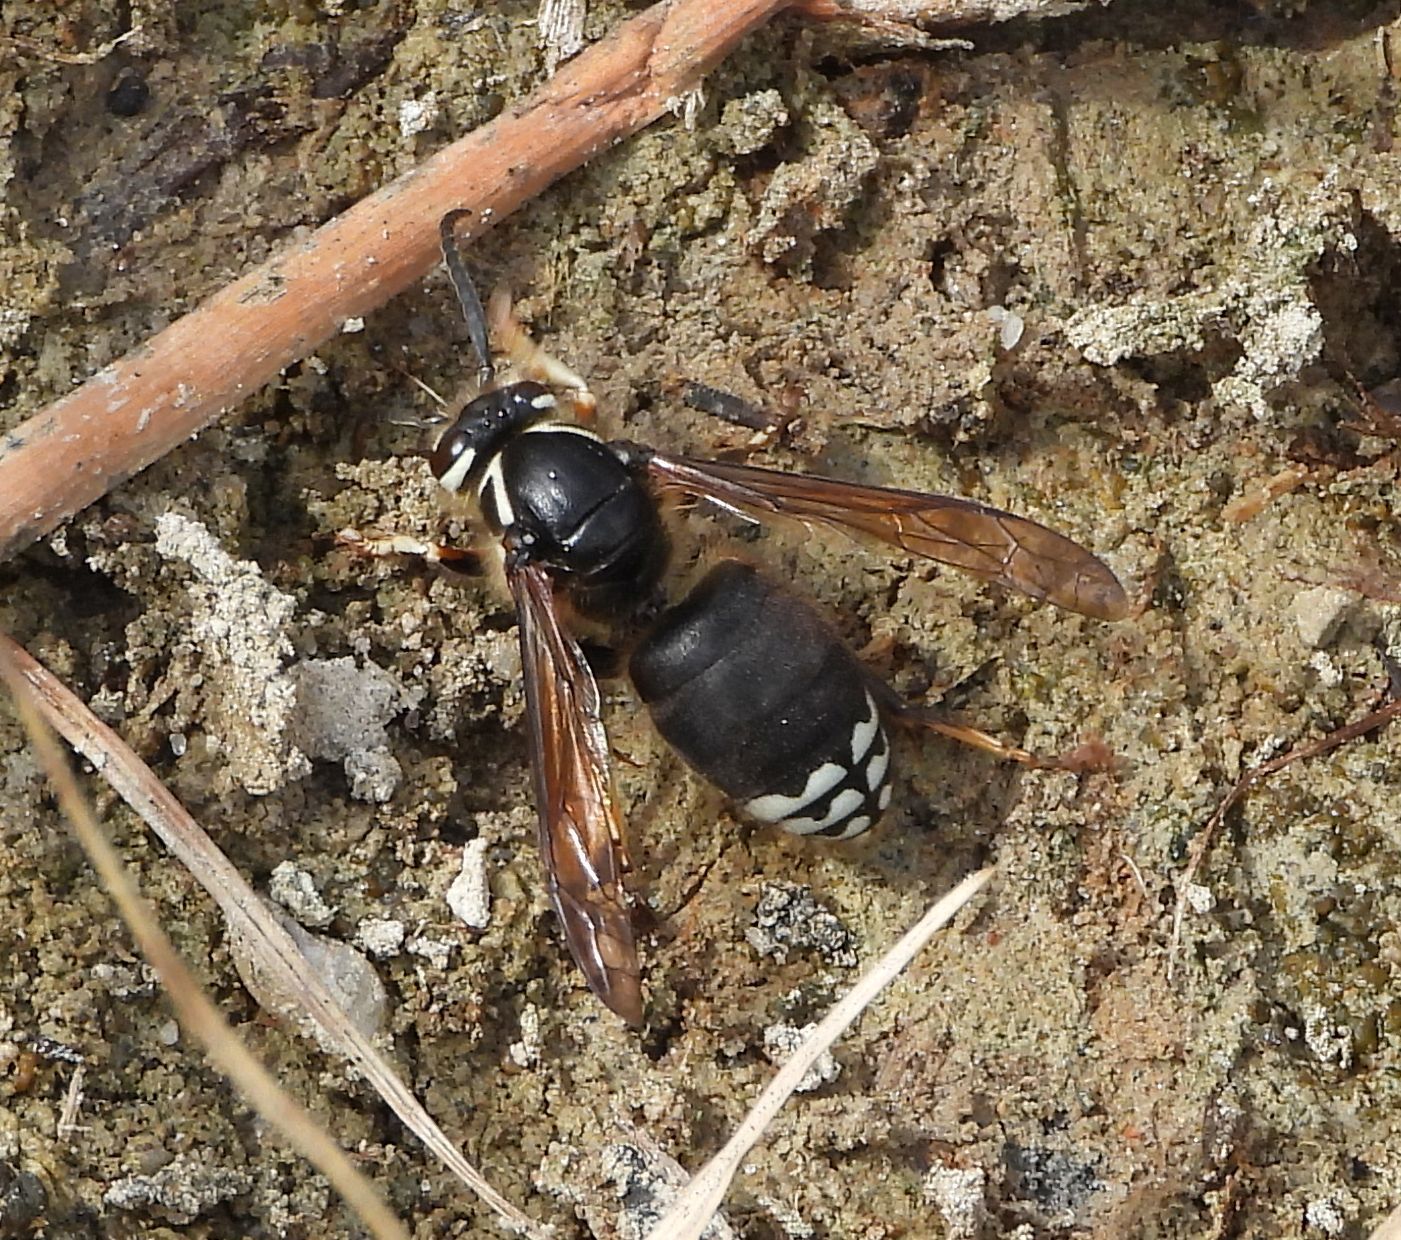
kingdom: Animalia
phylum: Arthropoda
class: Insecta
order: Hymenoptera
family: Vespidae
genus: Dolichovespula
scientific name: Dolichovespula maculata
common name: Bald-faced hornet
